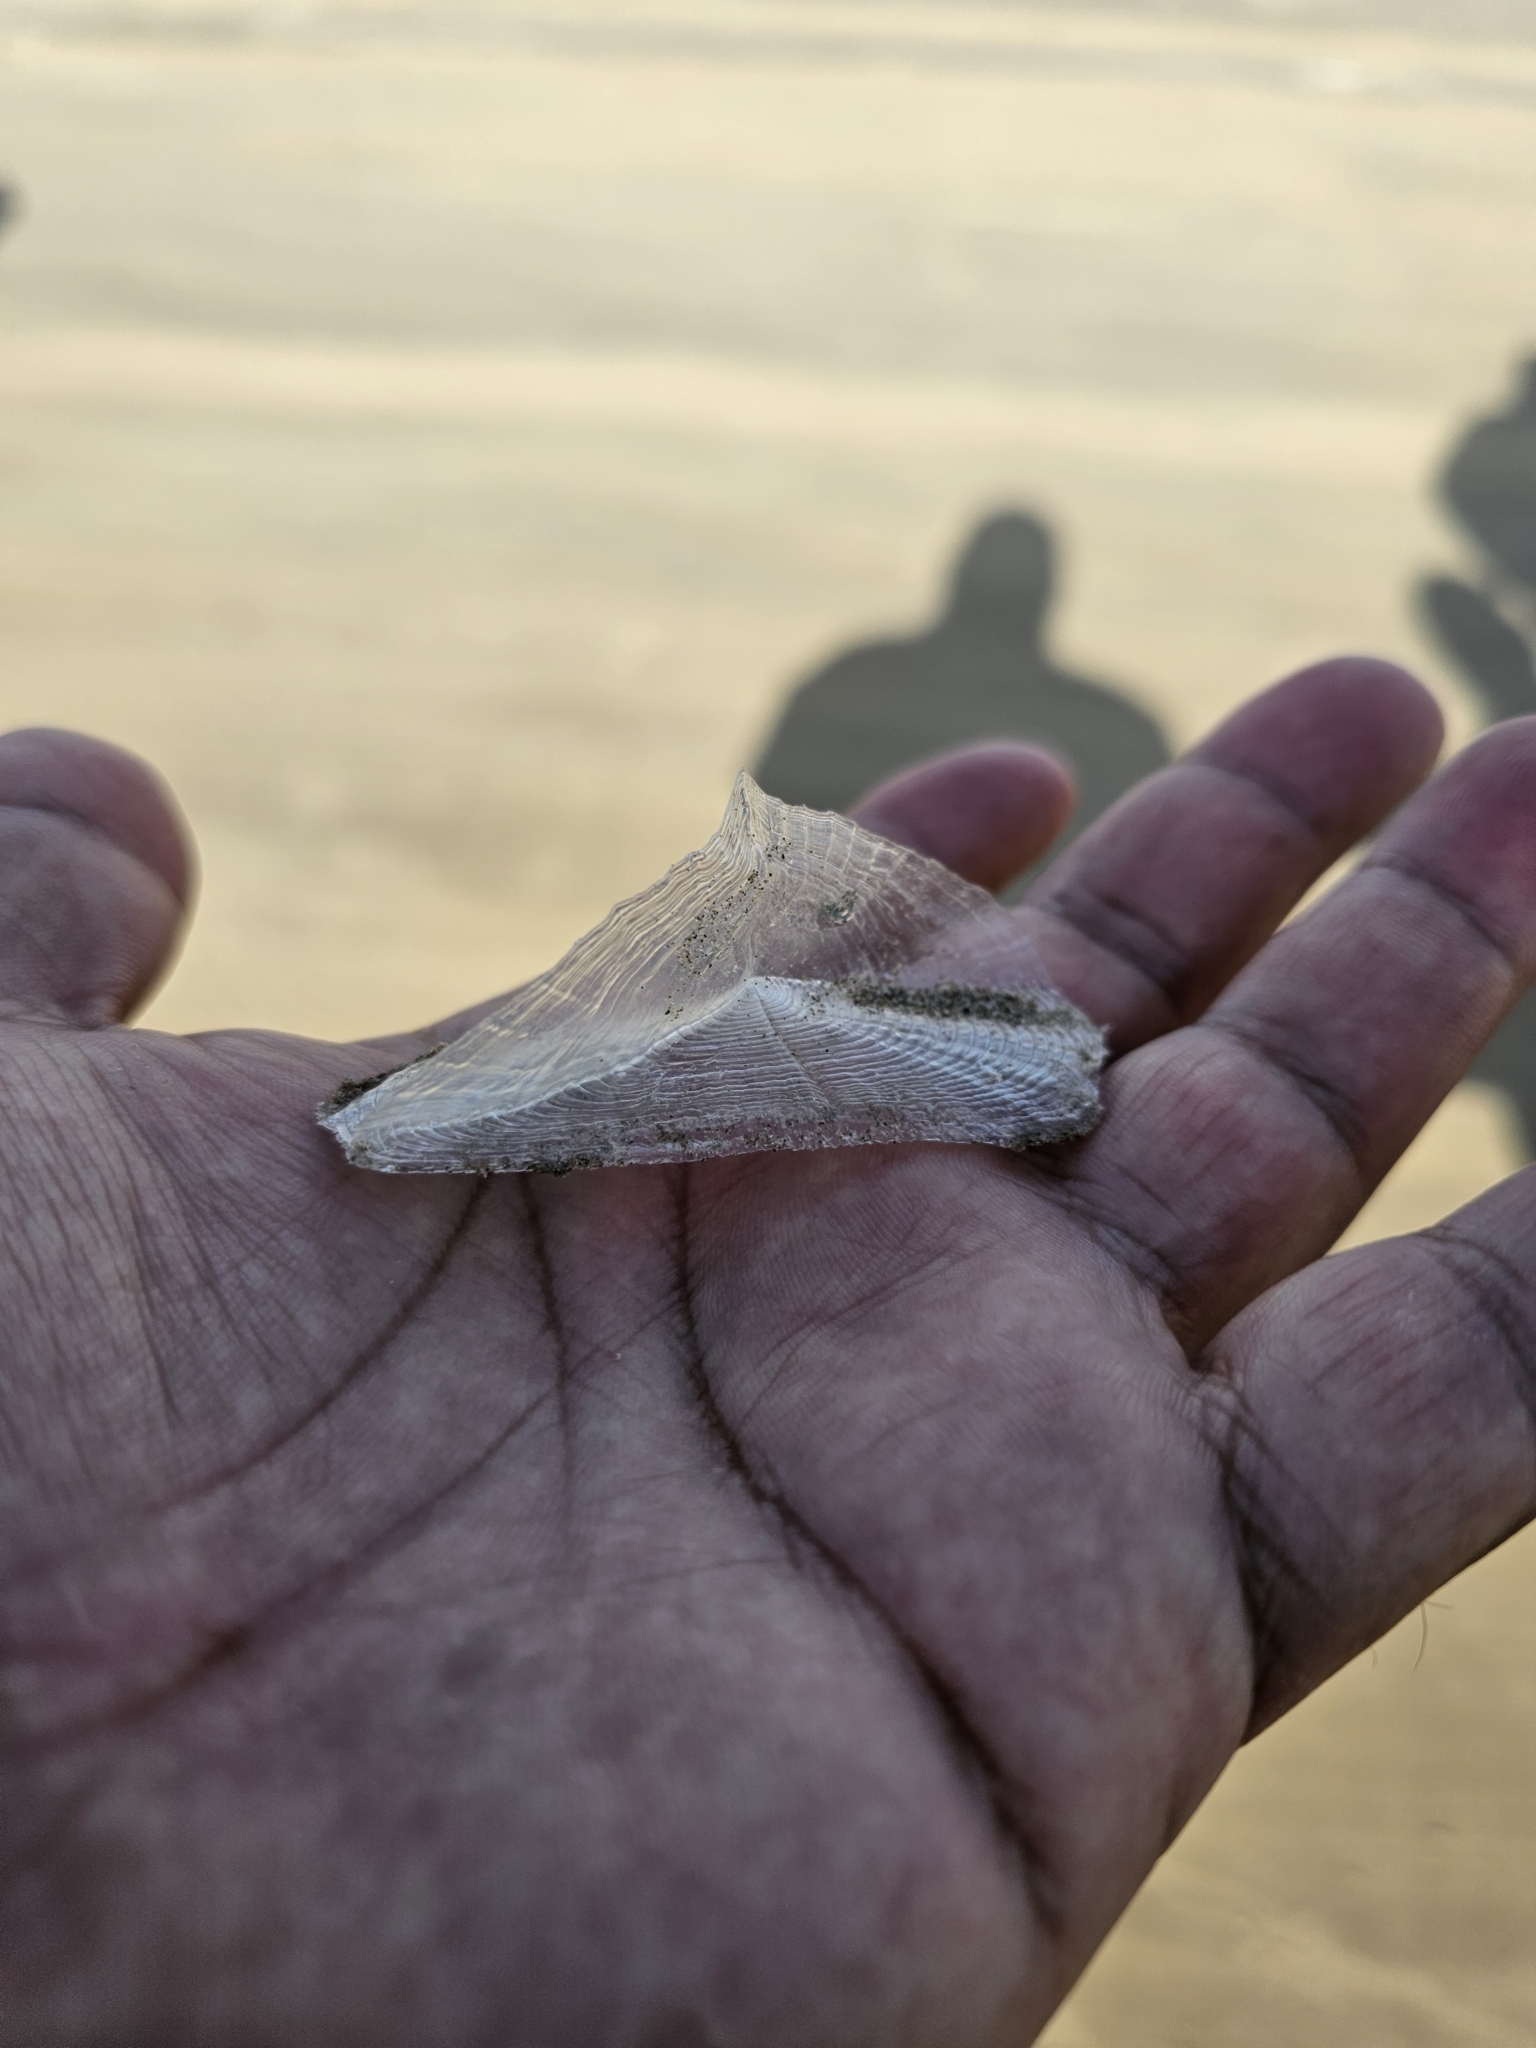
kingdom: Animalia
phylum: Cnidaria
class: Hydrozoa
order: Anthoathecata
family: Porpitidae
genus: Velella
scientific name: Velella velella
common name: By-the-wind-sailor
